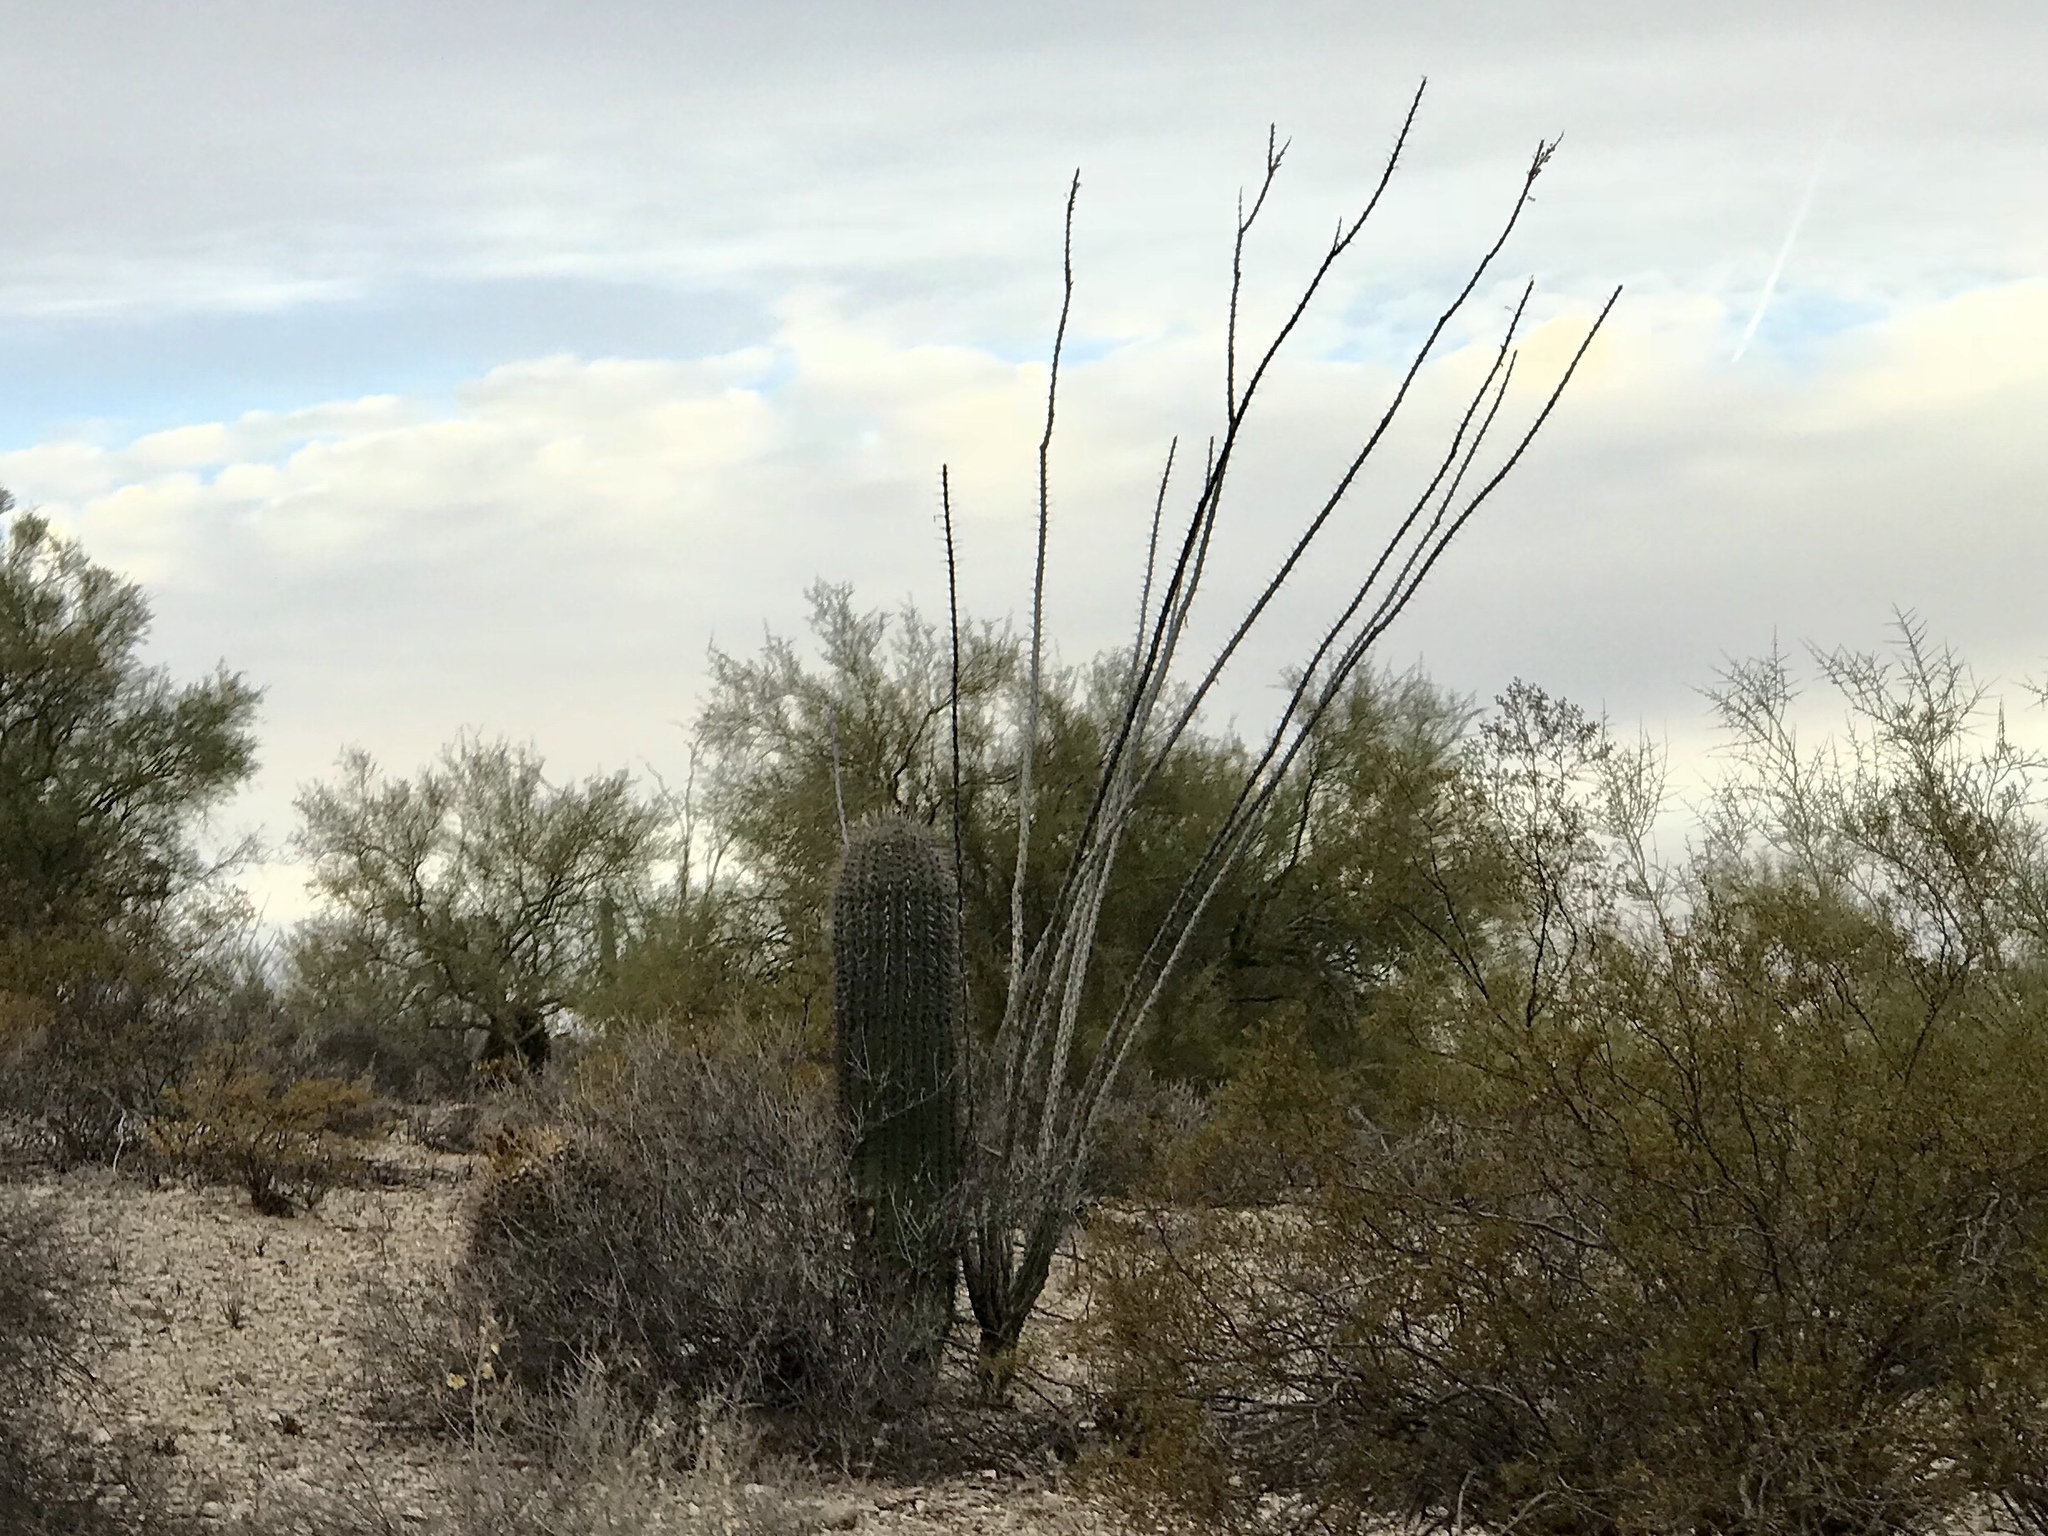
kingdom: Plantae
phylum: Tracheophyta
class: Magnoliopsida
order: Ericales
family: Fouquieriaceae
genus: Fouquieria
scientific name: Fouquieria splendens
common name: Vine-cactus
